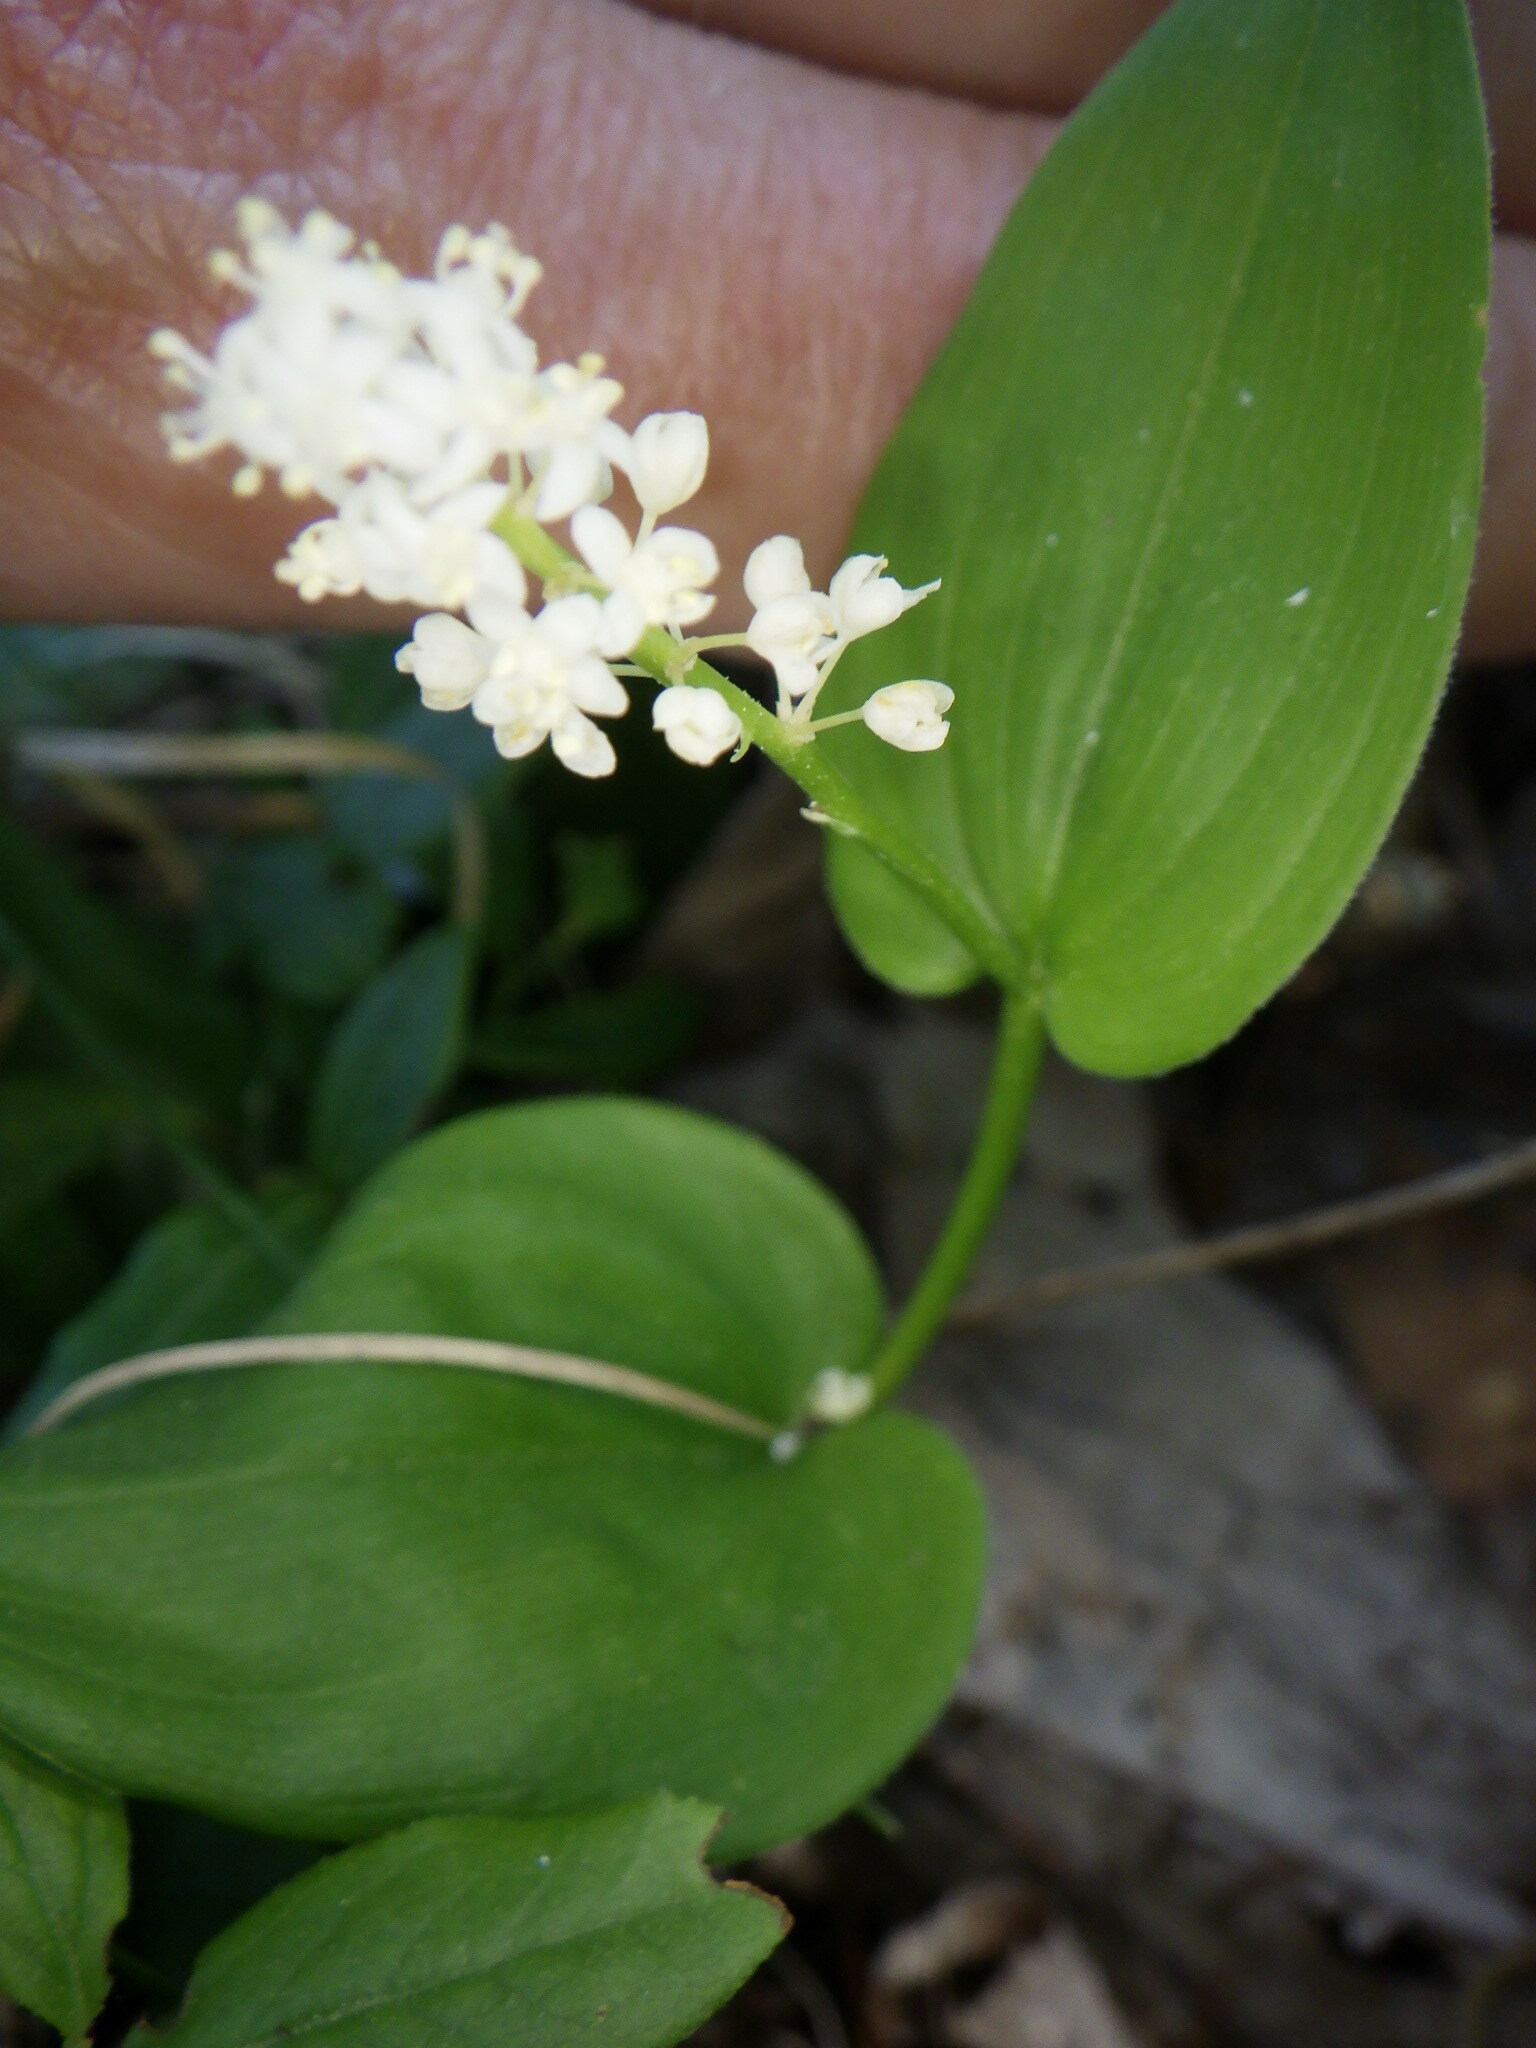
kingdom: Plantae
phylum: Tracheophyta
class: Liliopsida
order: Asparagales
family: Asparagaceae
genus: Maianthemum
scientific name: Maianthemum canadense
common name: False lily-of-the-valley
